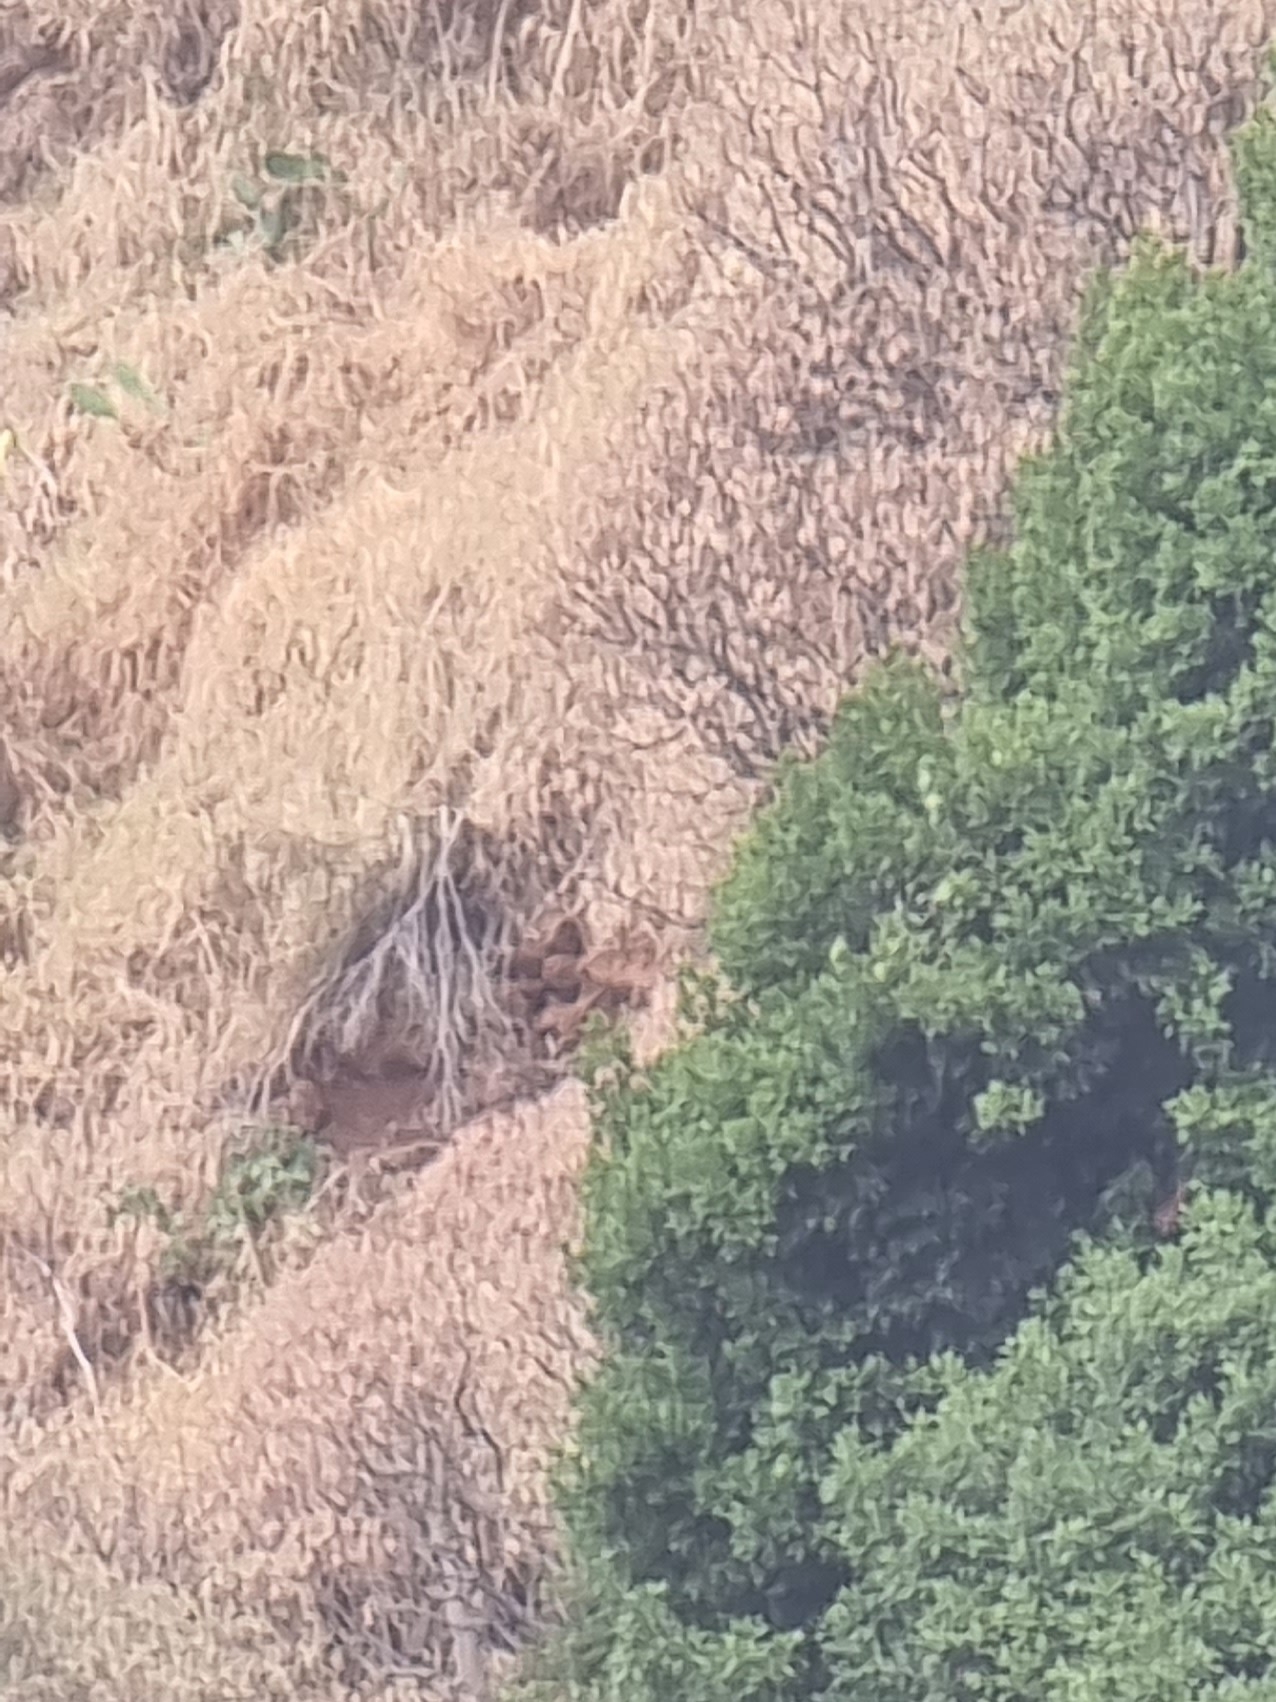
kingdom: Plantae
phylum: Tracheophyta
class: Magnoliopsida
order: Malpighiales
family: Euphorbiaceae
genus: Euphorbia
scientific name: Euphorbia piscatoria
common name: Fish-stunning spurge
